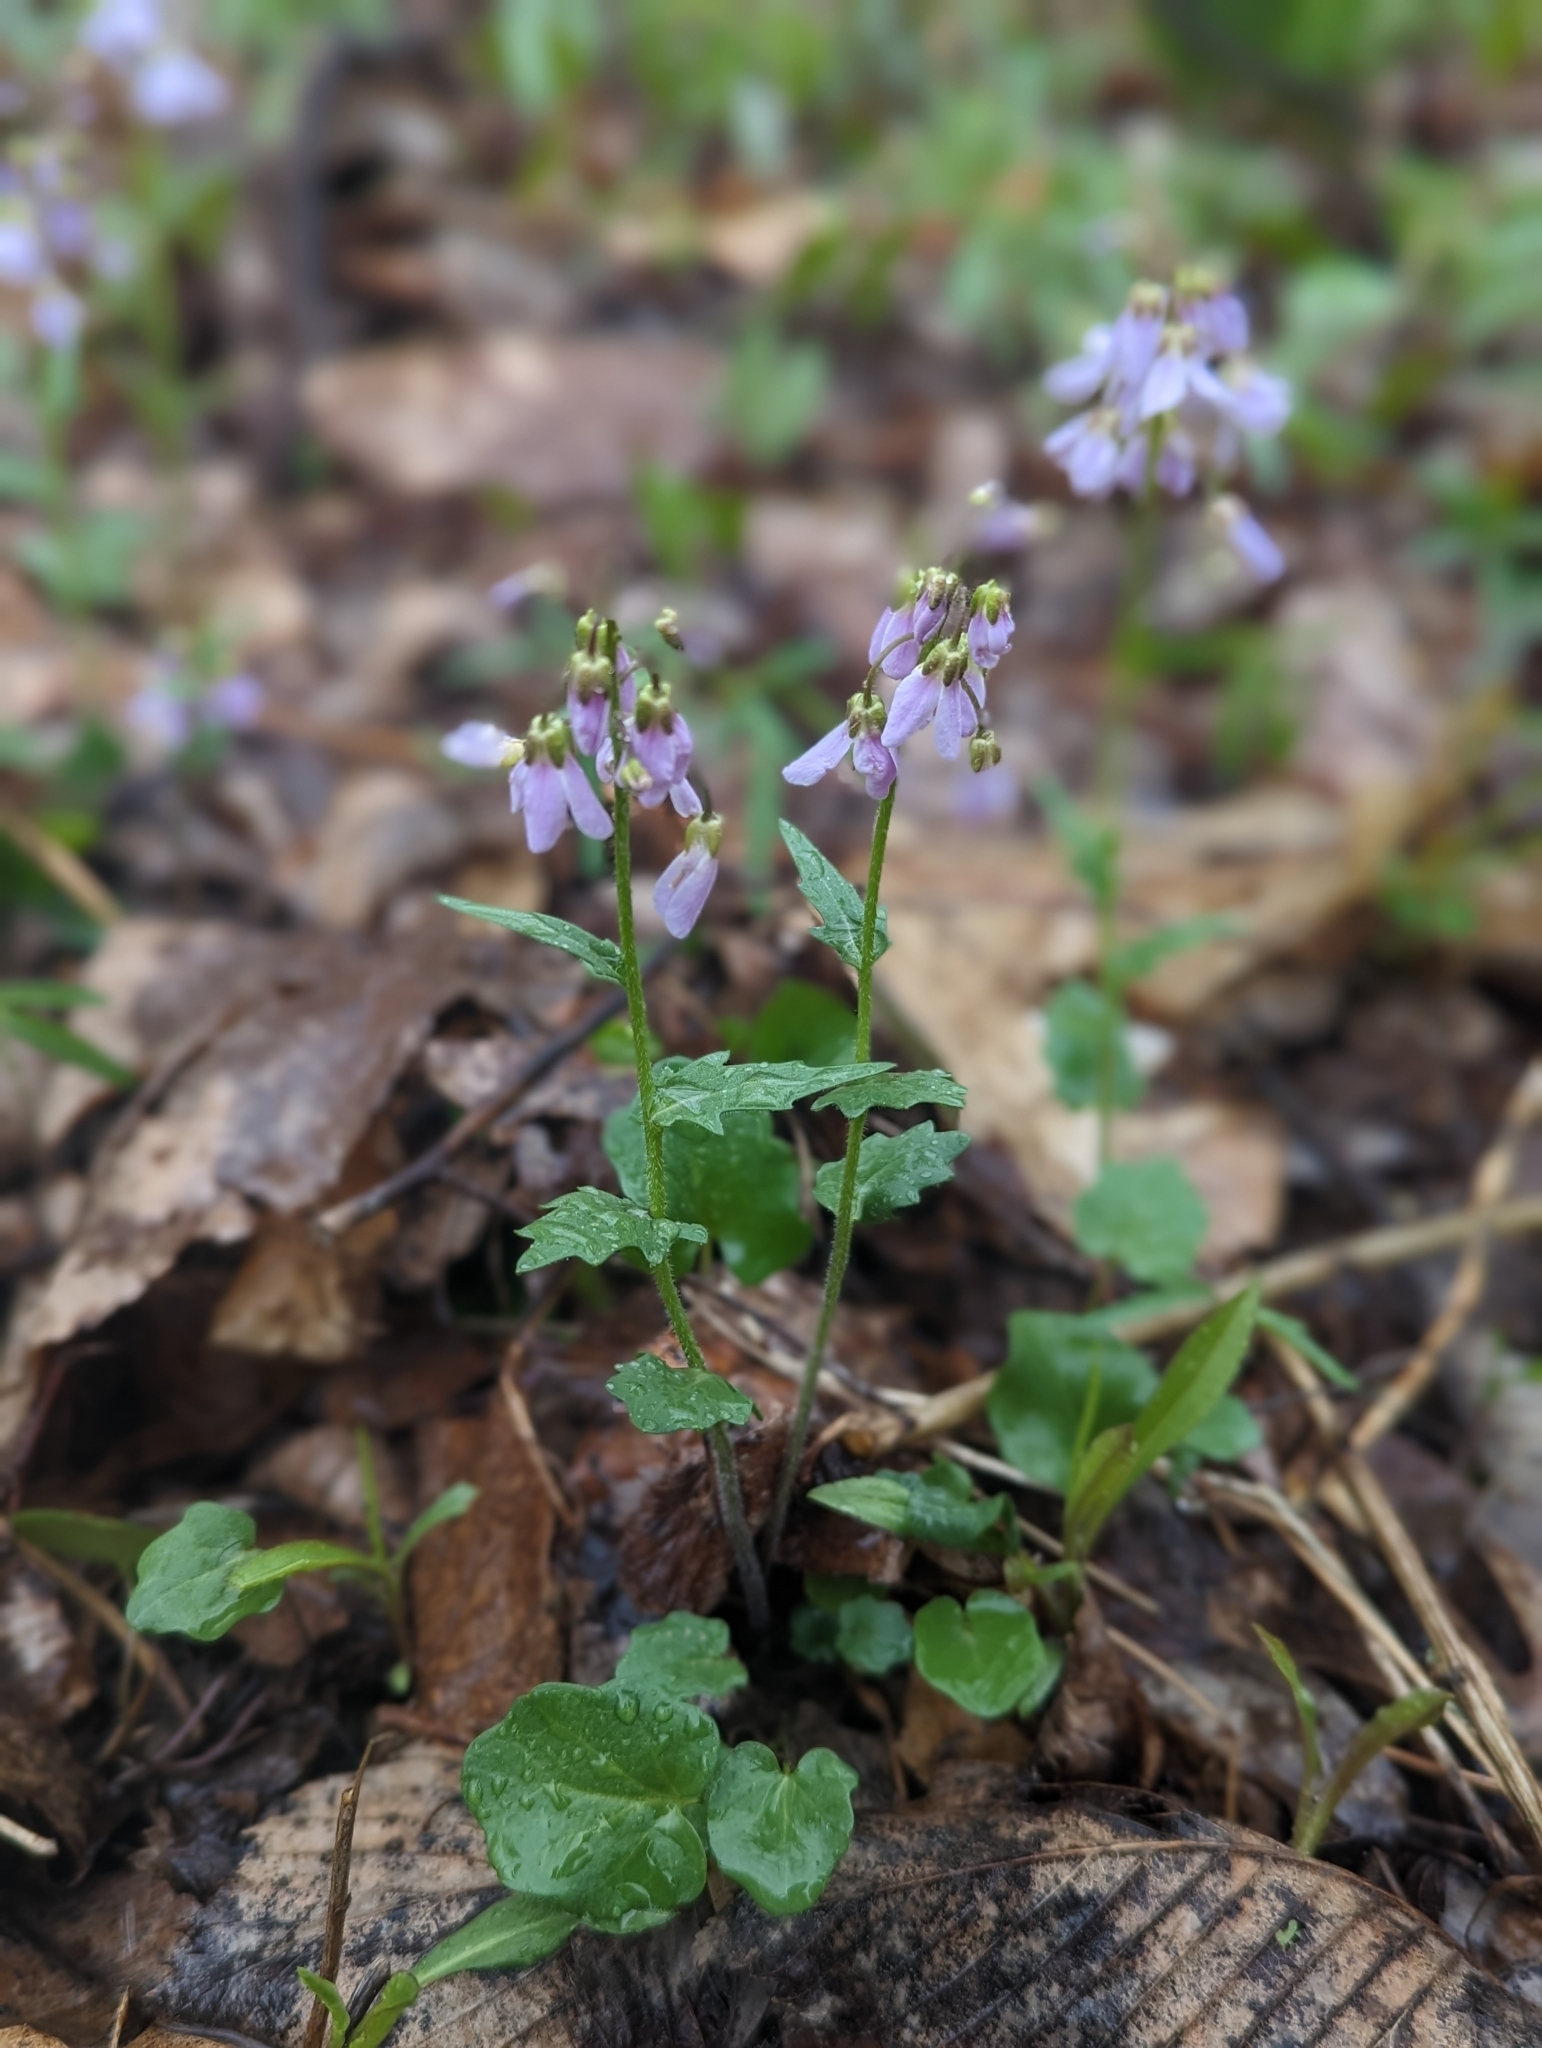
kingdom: Plantae
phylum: Tracheophyta
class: Magnoliopsida
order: Brassicales
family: Brassicaceae
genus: Cardamine
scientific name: Cardamine douglassii
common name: Purple cress
